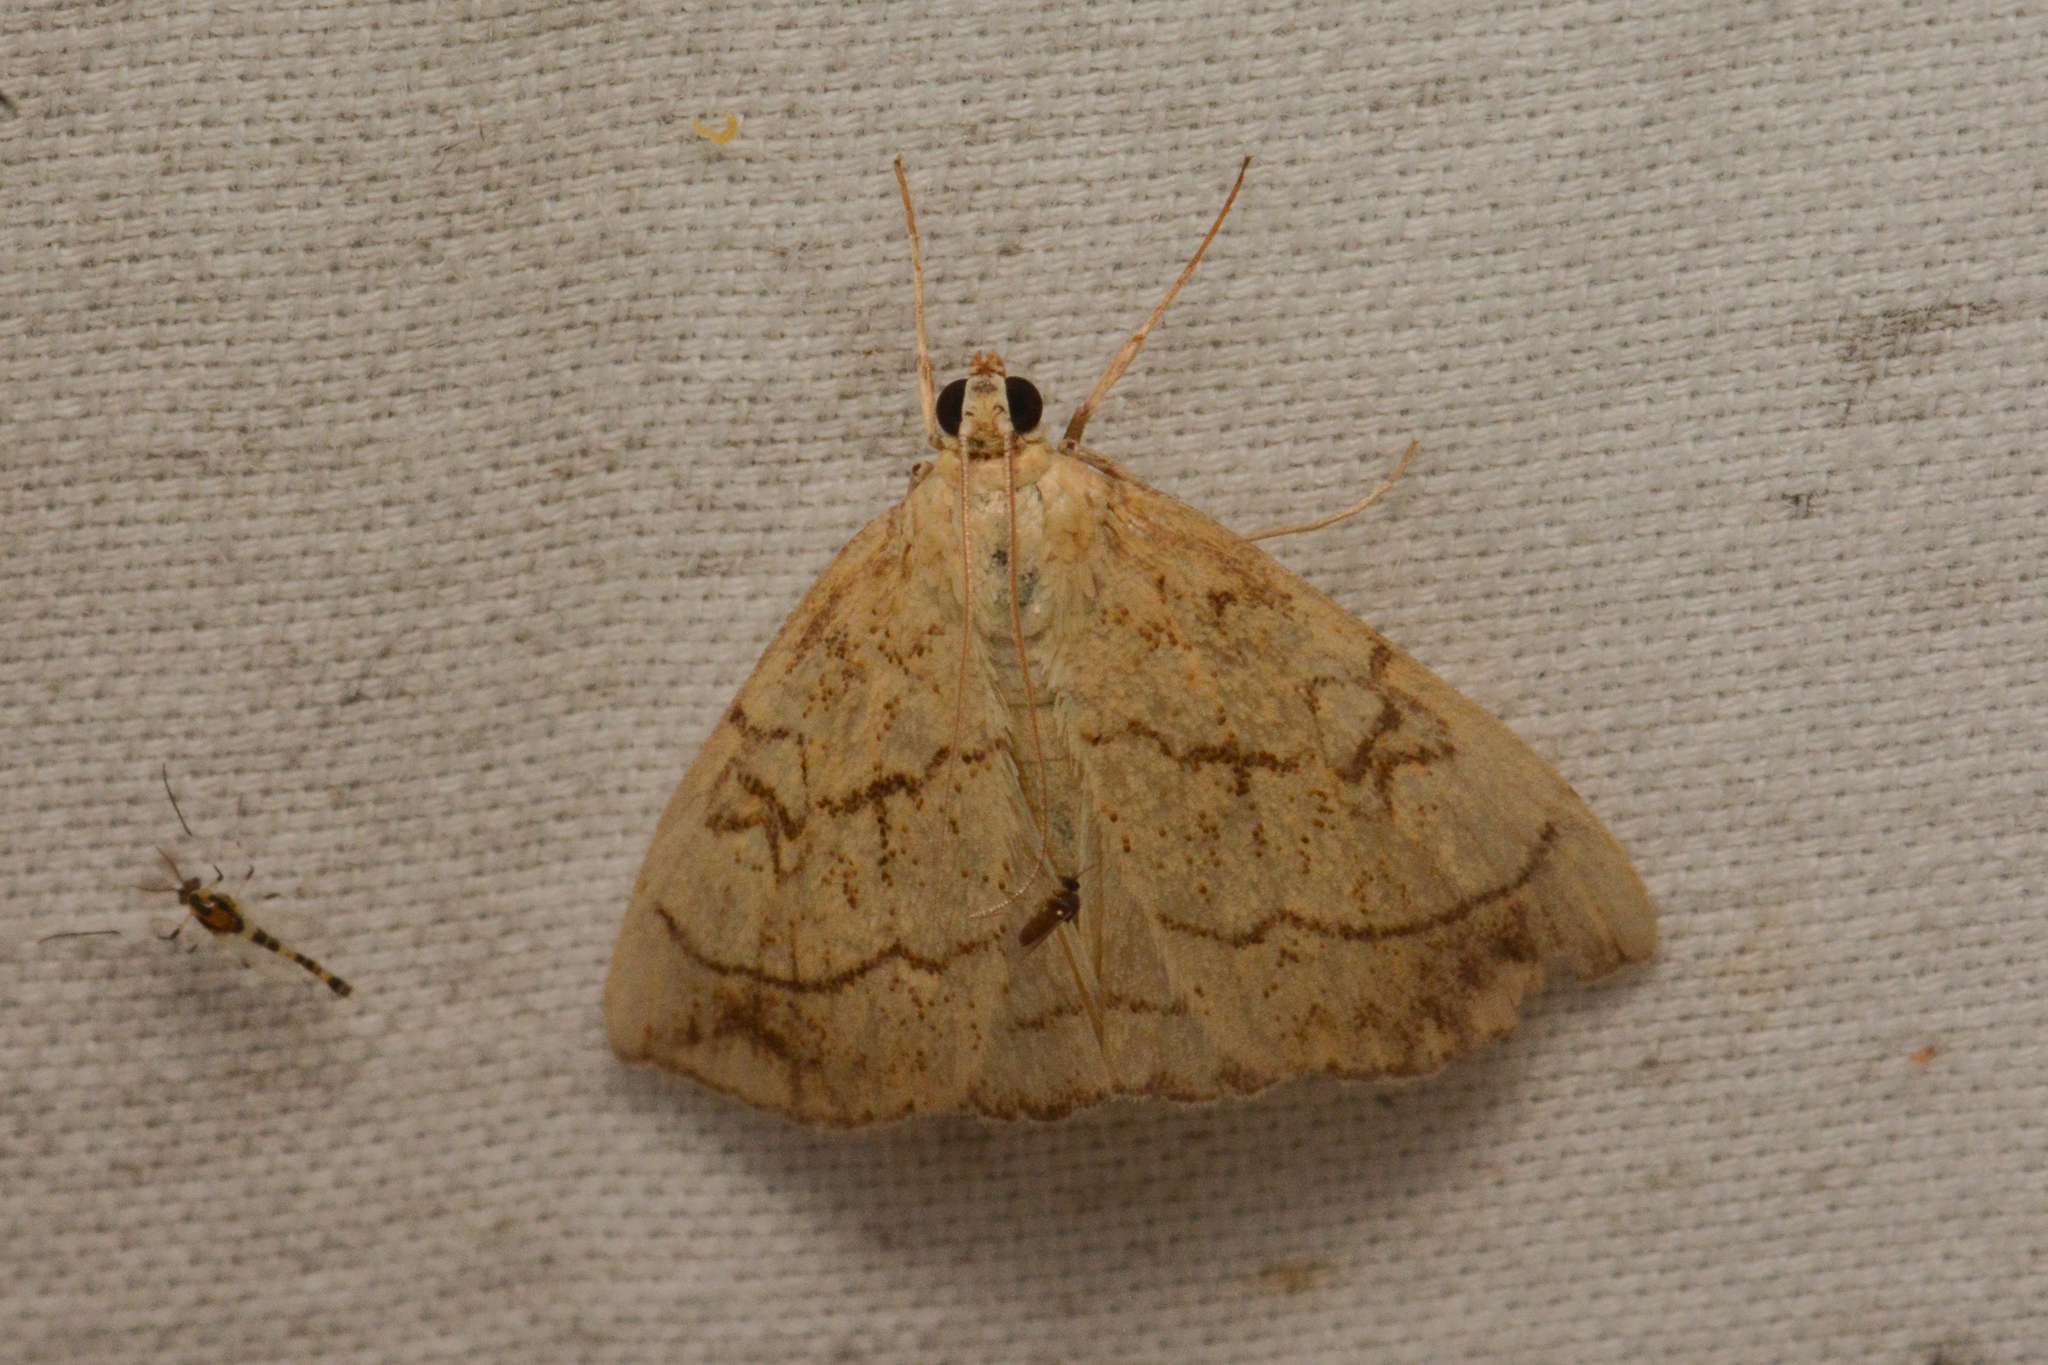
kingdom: Animalia
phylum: Arthropoda
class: Insecta
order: Lepidoptera
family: Crambidae
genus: Evergestis
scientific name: Evergestis pallidata
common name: Chequered pearl
